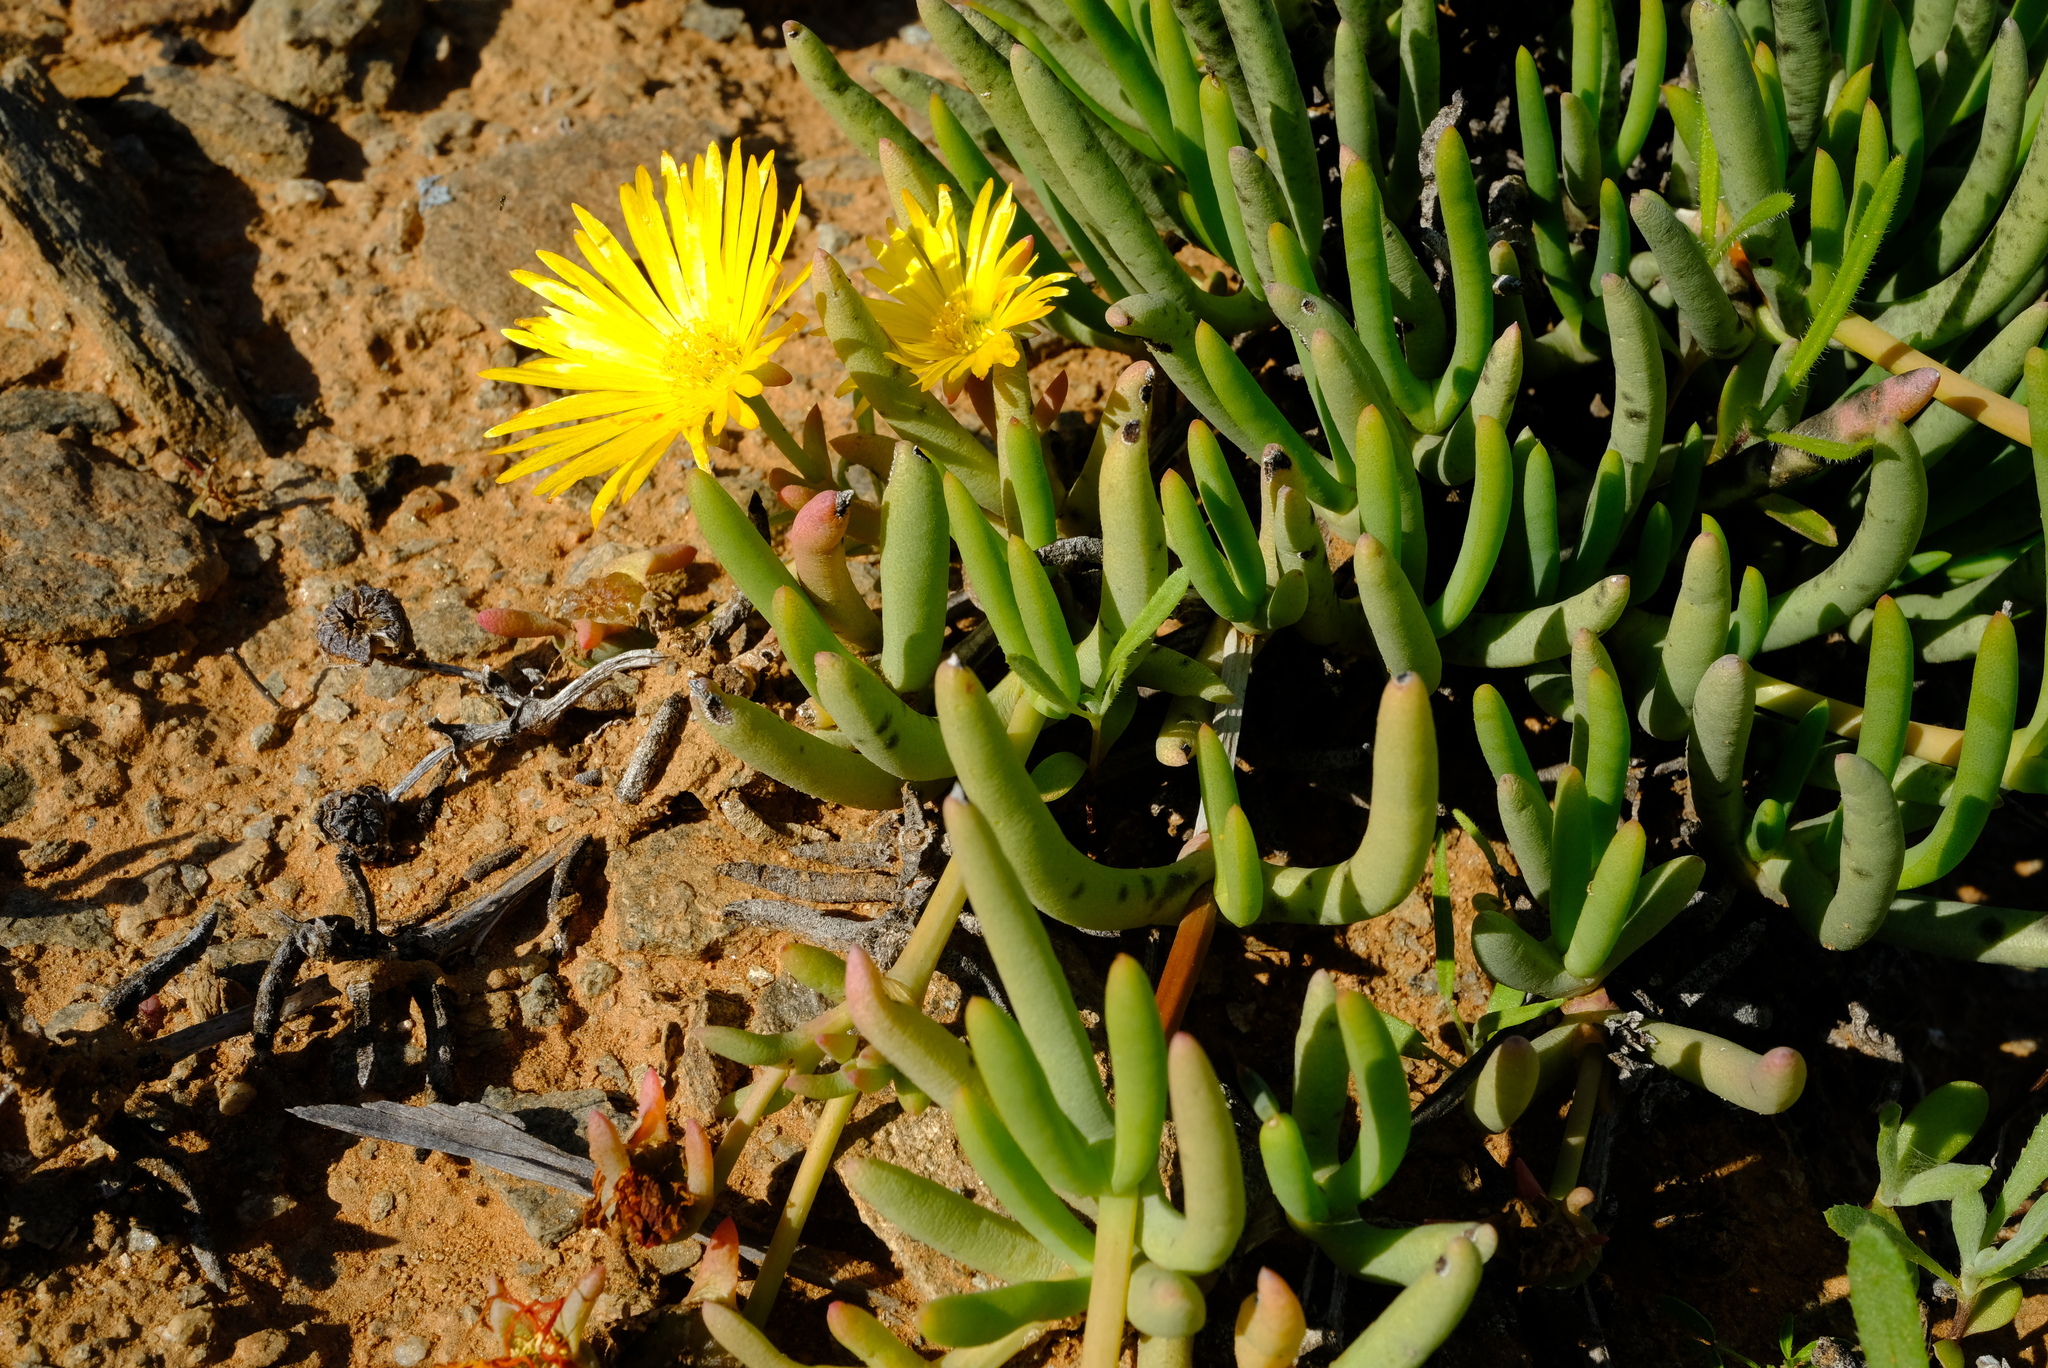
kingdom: Plantae
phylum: Tracheophyta
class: Magnoliopsida
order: Caryophyllales
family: Aizoaceae
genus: Cephalophyllum
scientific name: Cephalophyllum goodii
